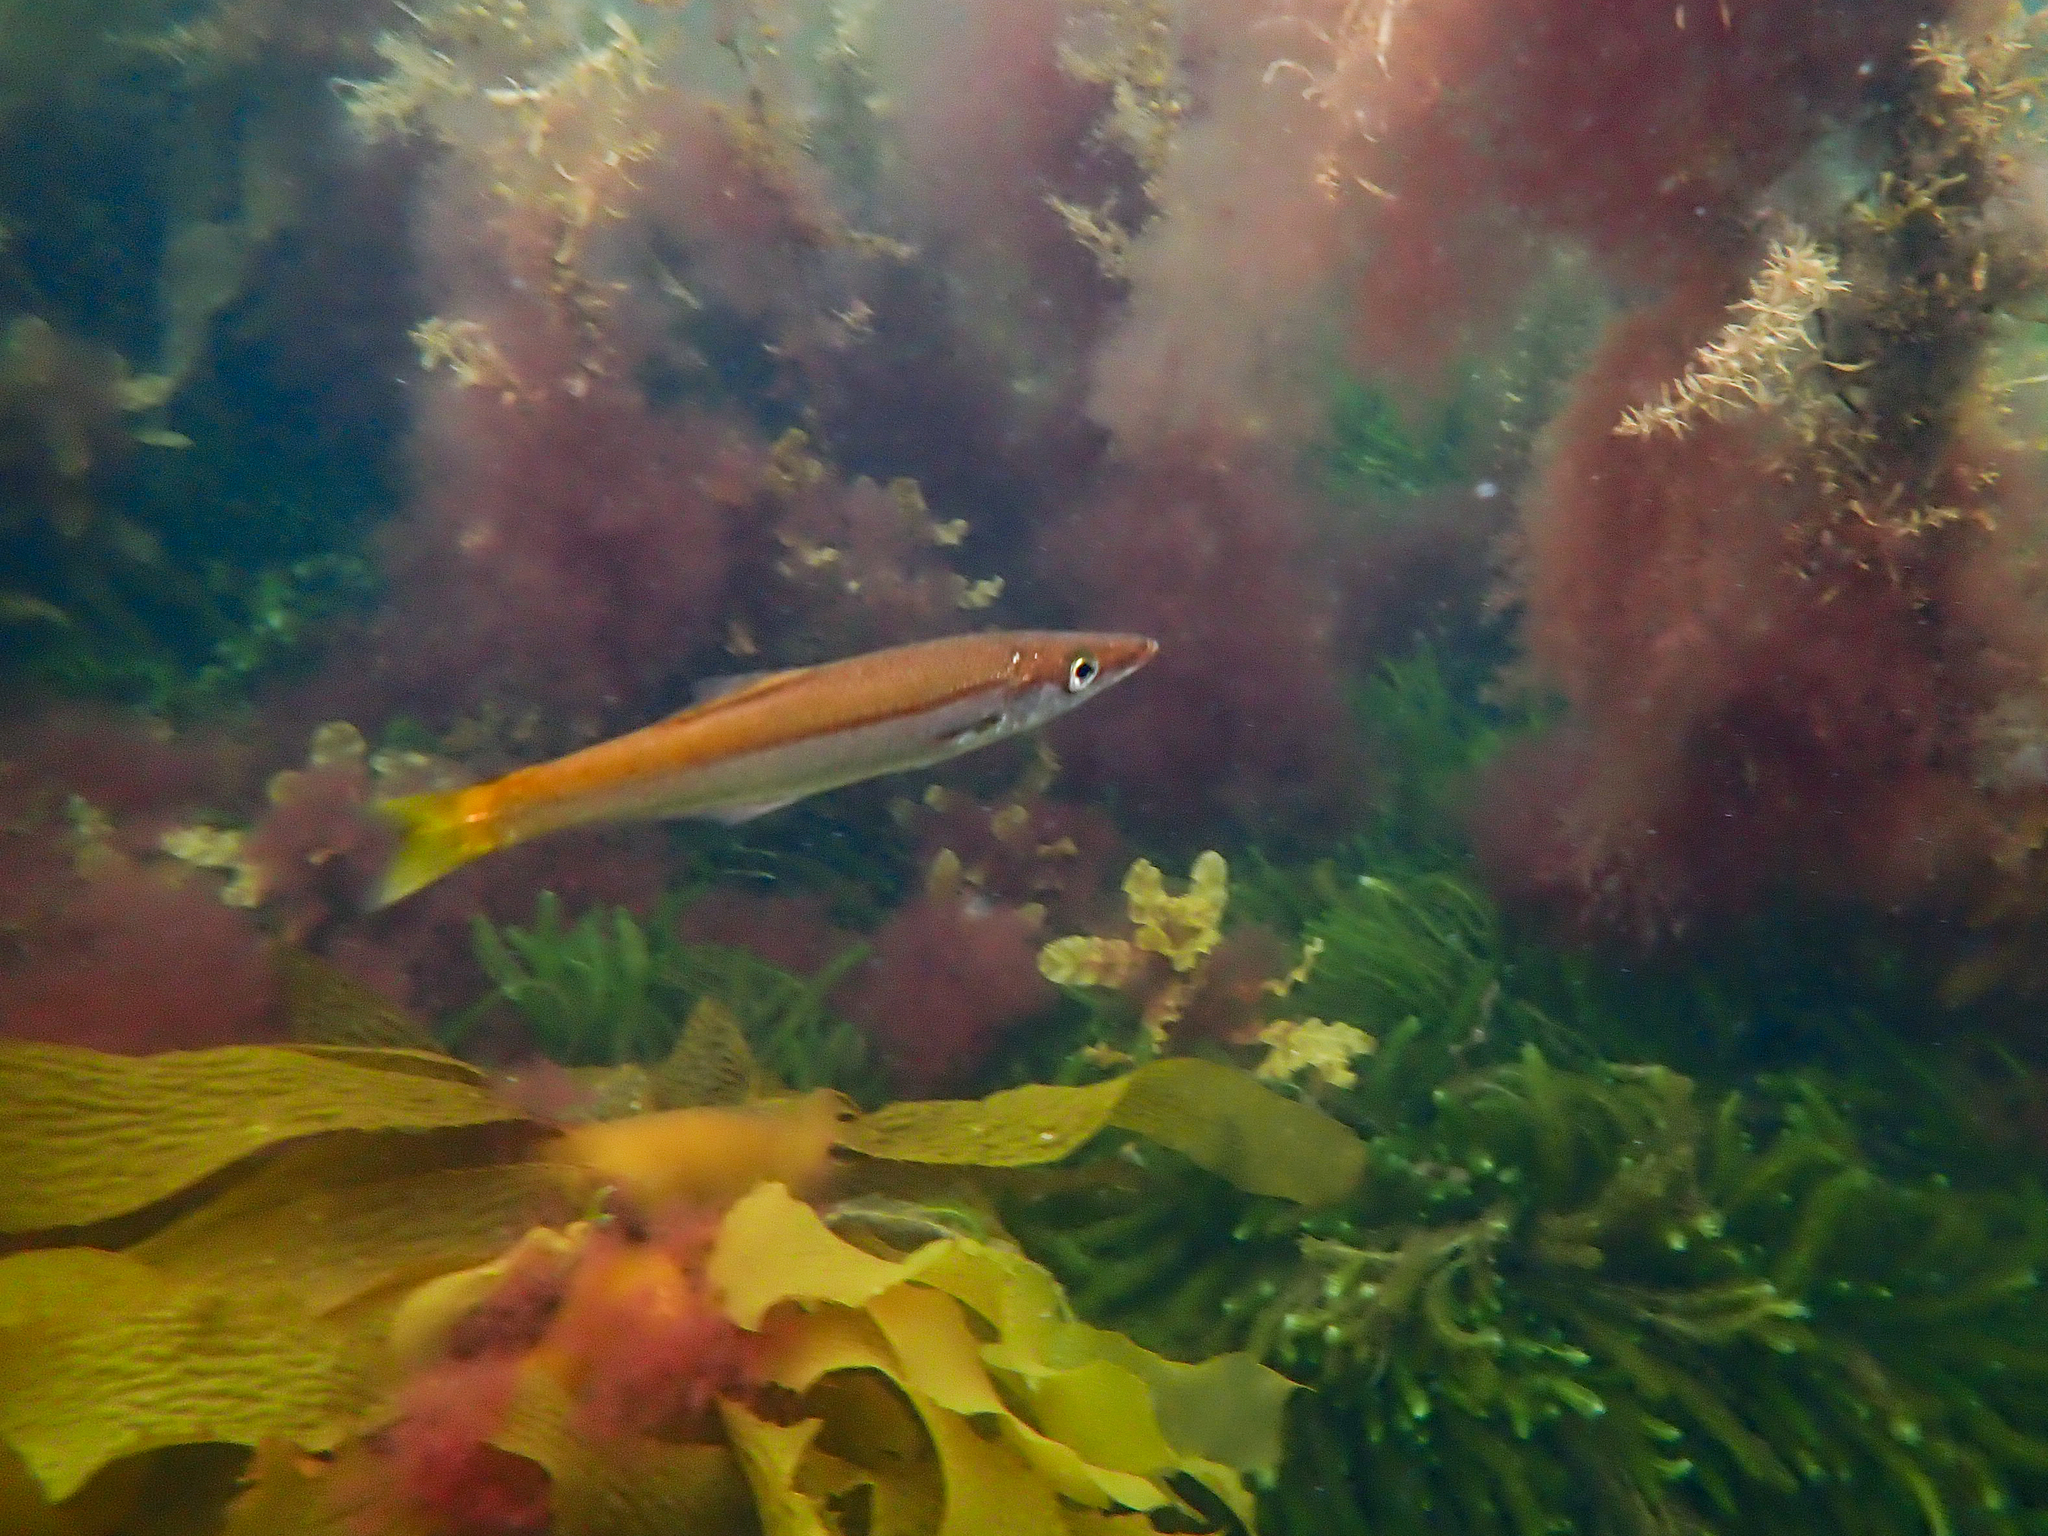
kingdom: Animalia
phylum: Chordata
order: Perciformes
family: Dinolestidae
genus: Dinolestes
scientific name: Dinolestes lewini
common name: Jack pike
